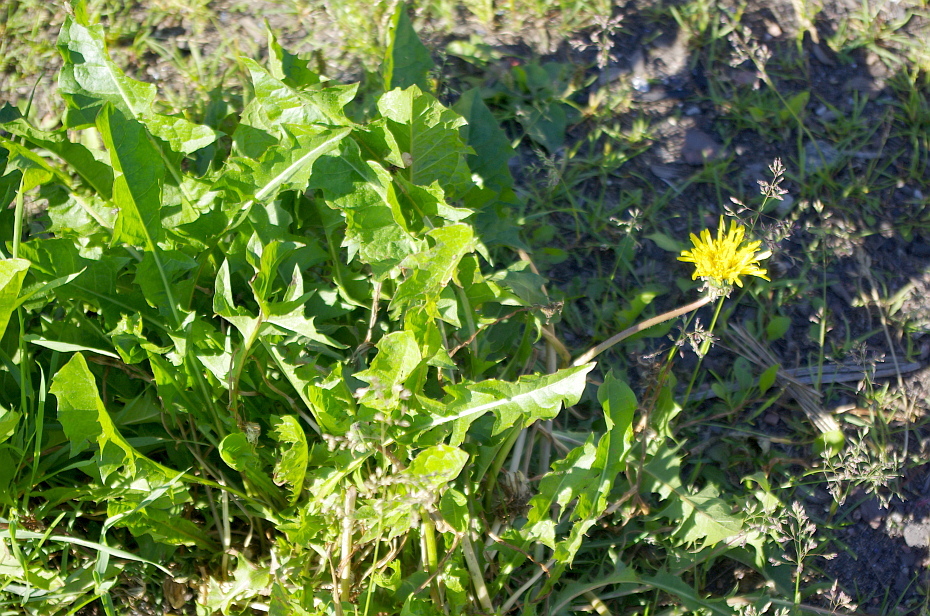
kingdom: Plantae
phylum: Tracheophyta
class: Magnoliopsida
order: Asterales
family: Asteraceae
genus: Taraxacum
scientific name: Taraxacum officinale
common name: Common dandelion
